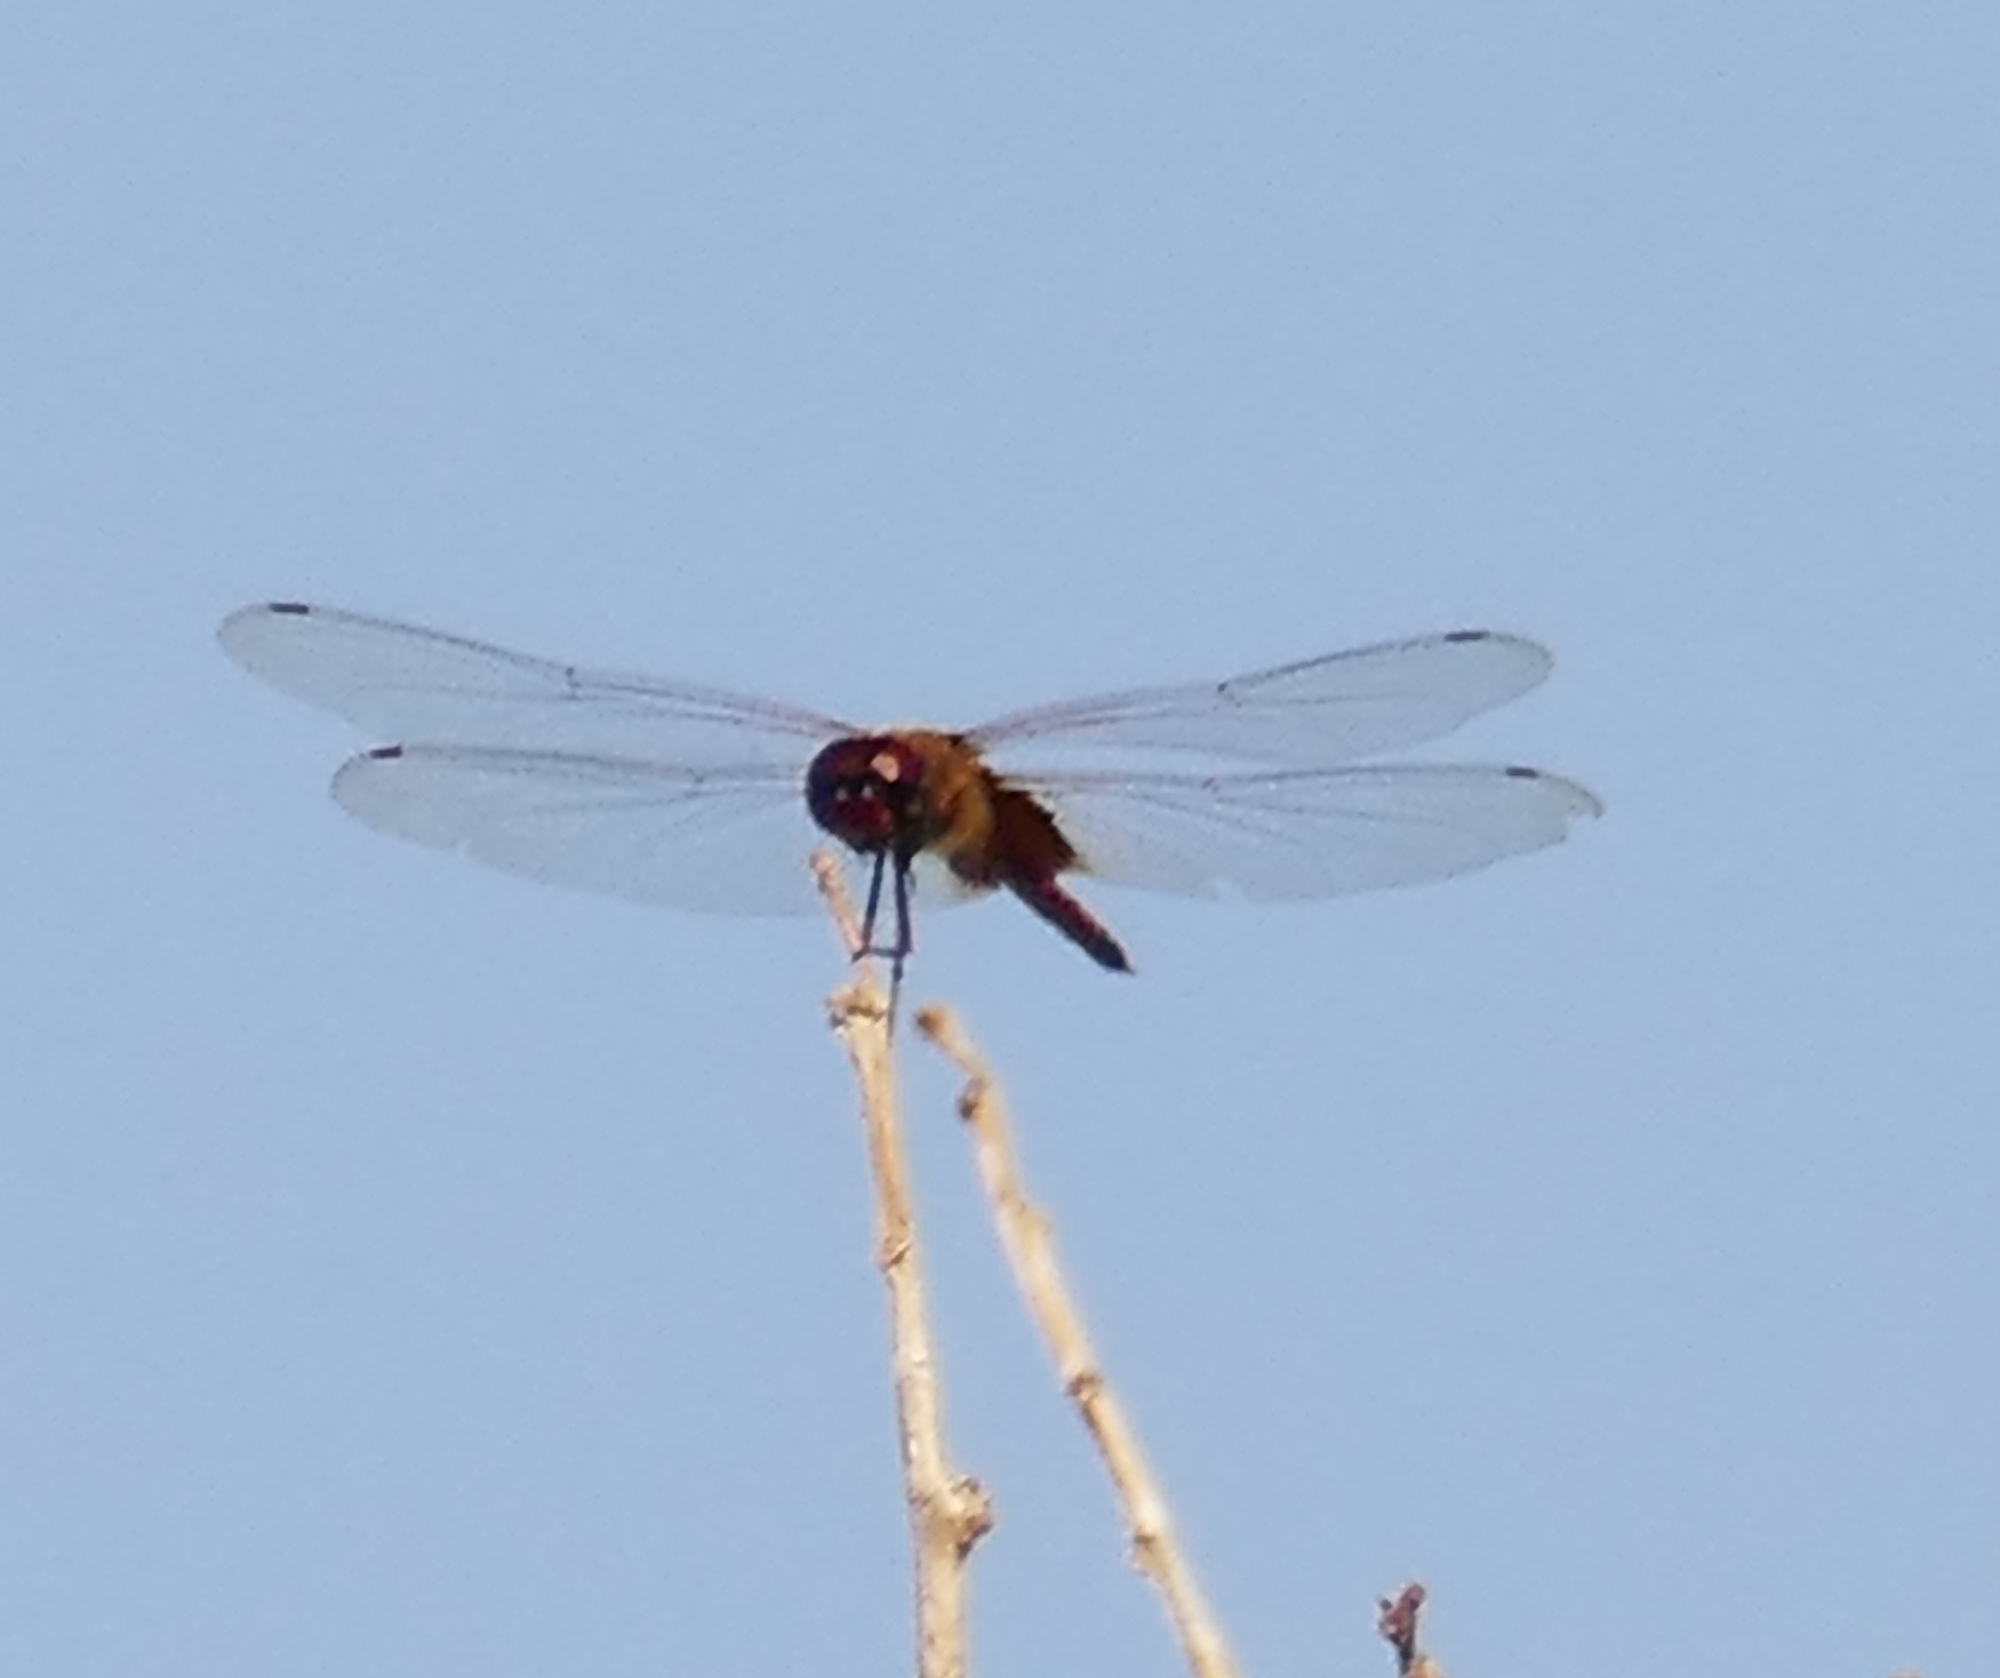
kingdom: Animalia
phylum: Arthropoda
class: Insecta
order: Odonata
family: Libellulidae
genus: Tramea
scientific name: Tramea darwini
